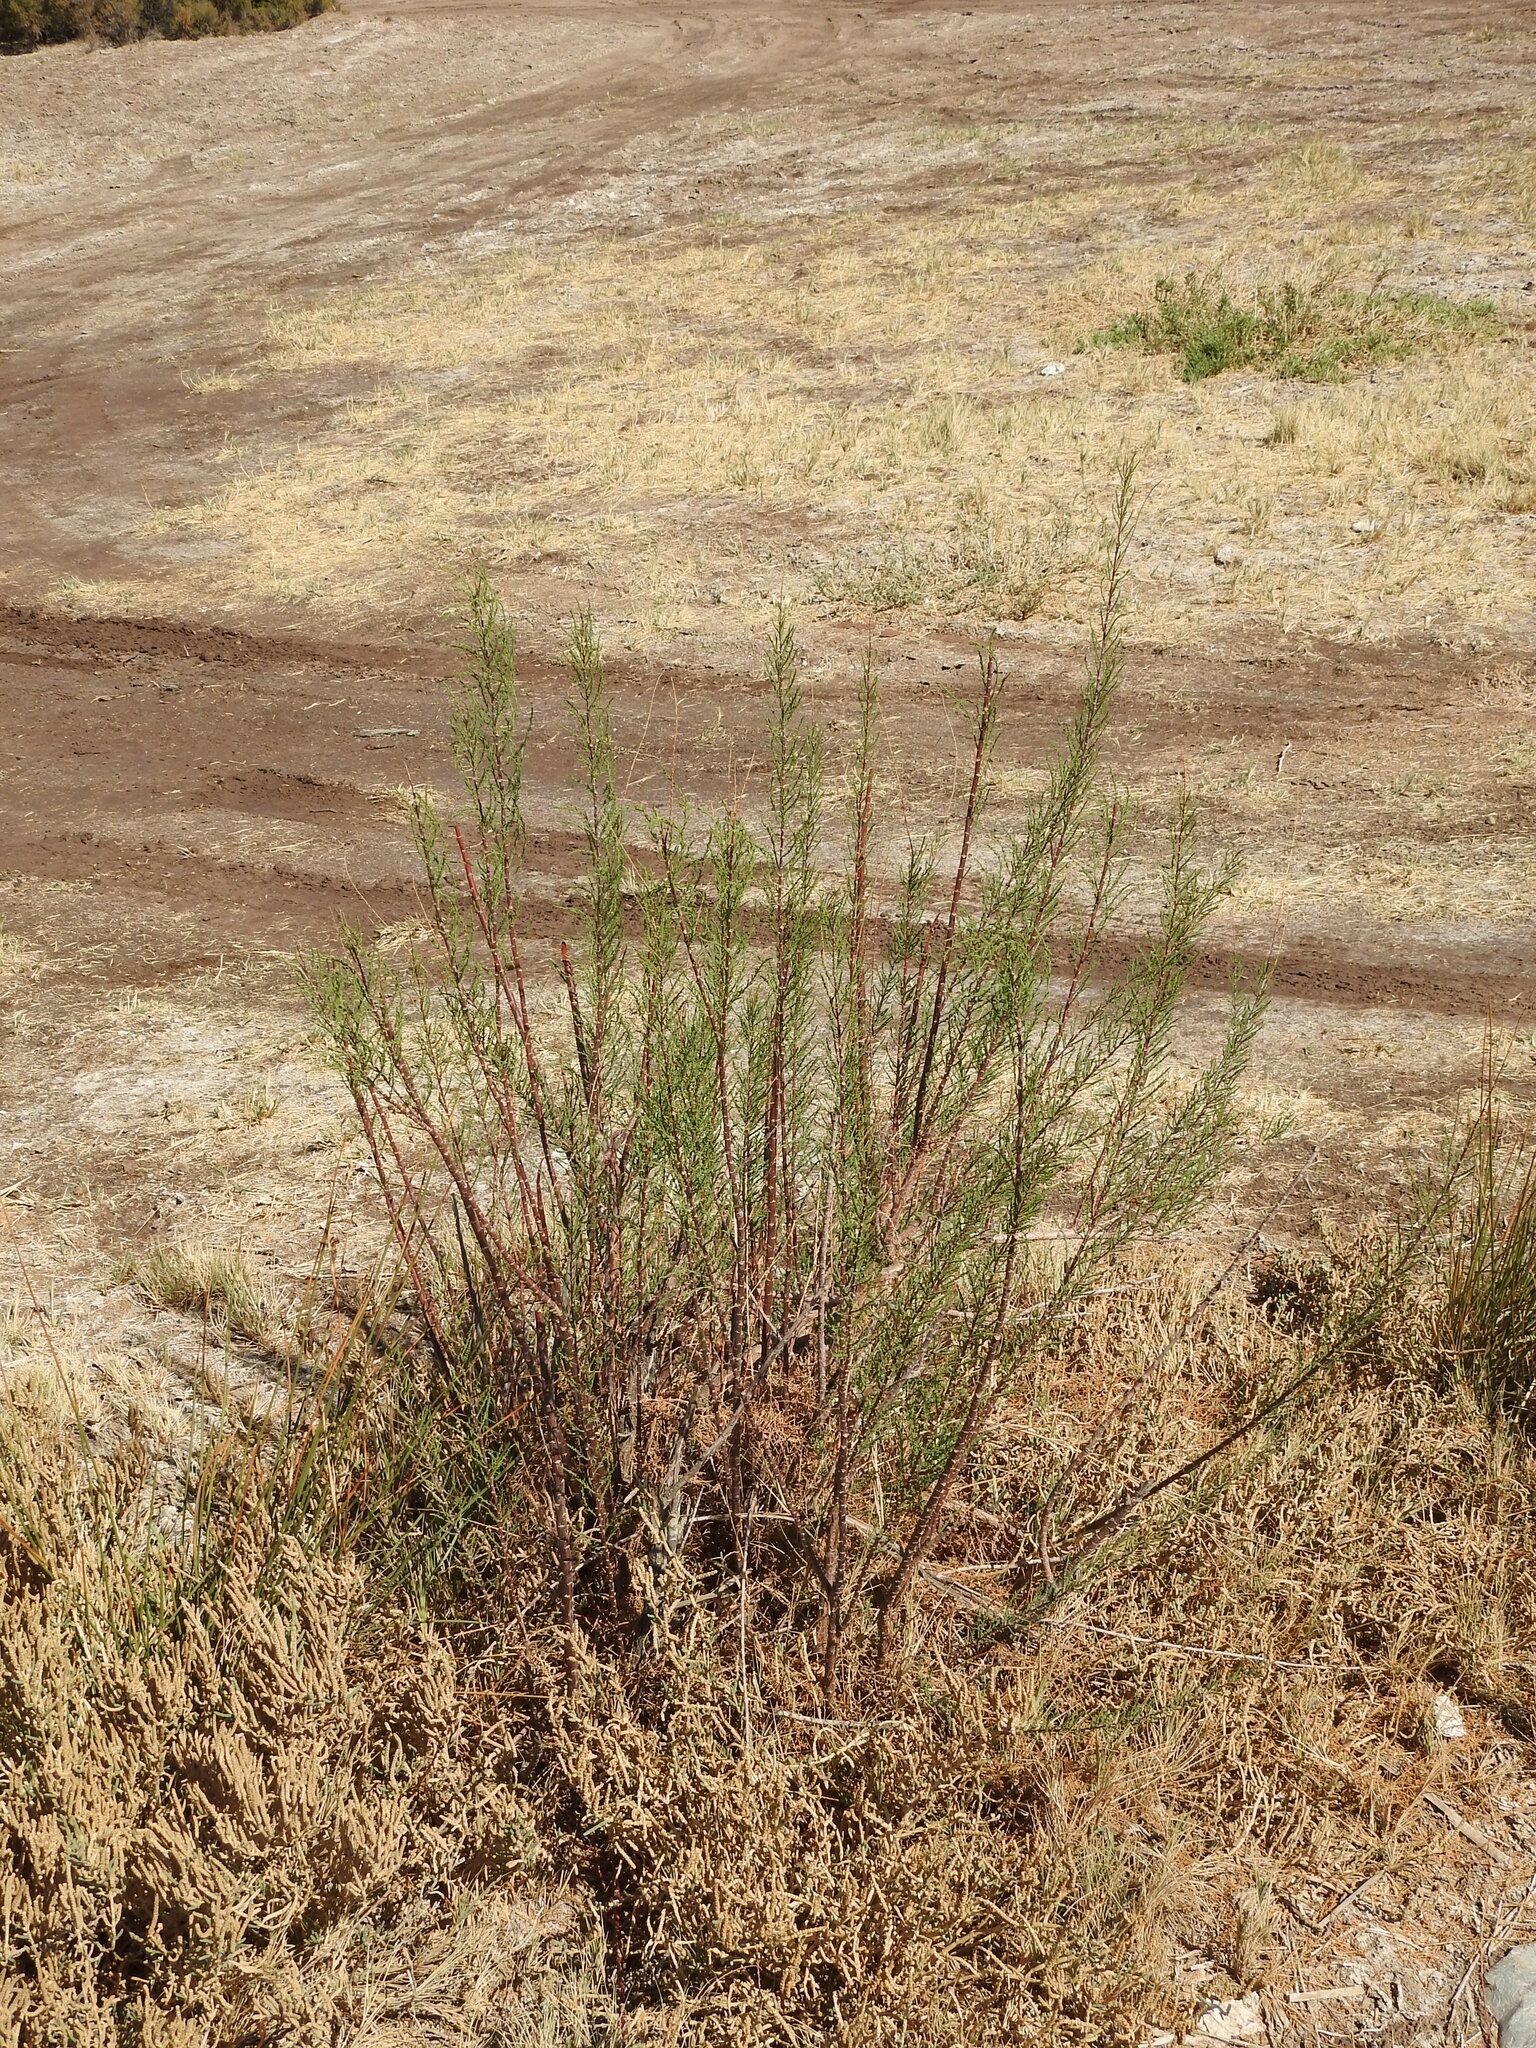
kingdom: Plantae
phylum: Tracheophyta
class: Magnoliopsida
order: Caryophyllales
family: Tamaricaceae
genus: Tamarix
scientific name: Tamarix gallica
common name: Tamarisk
